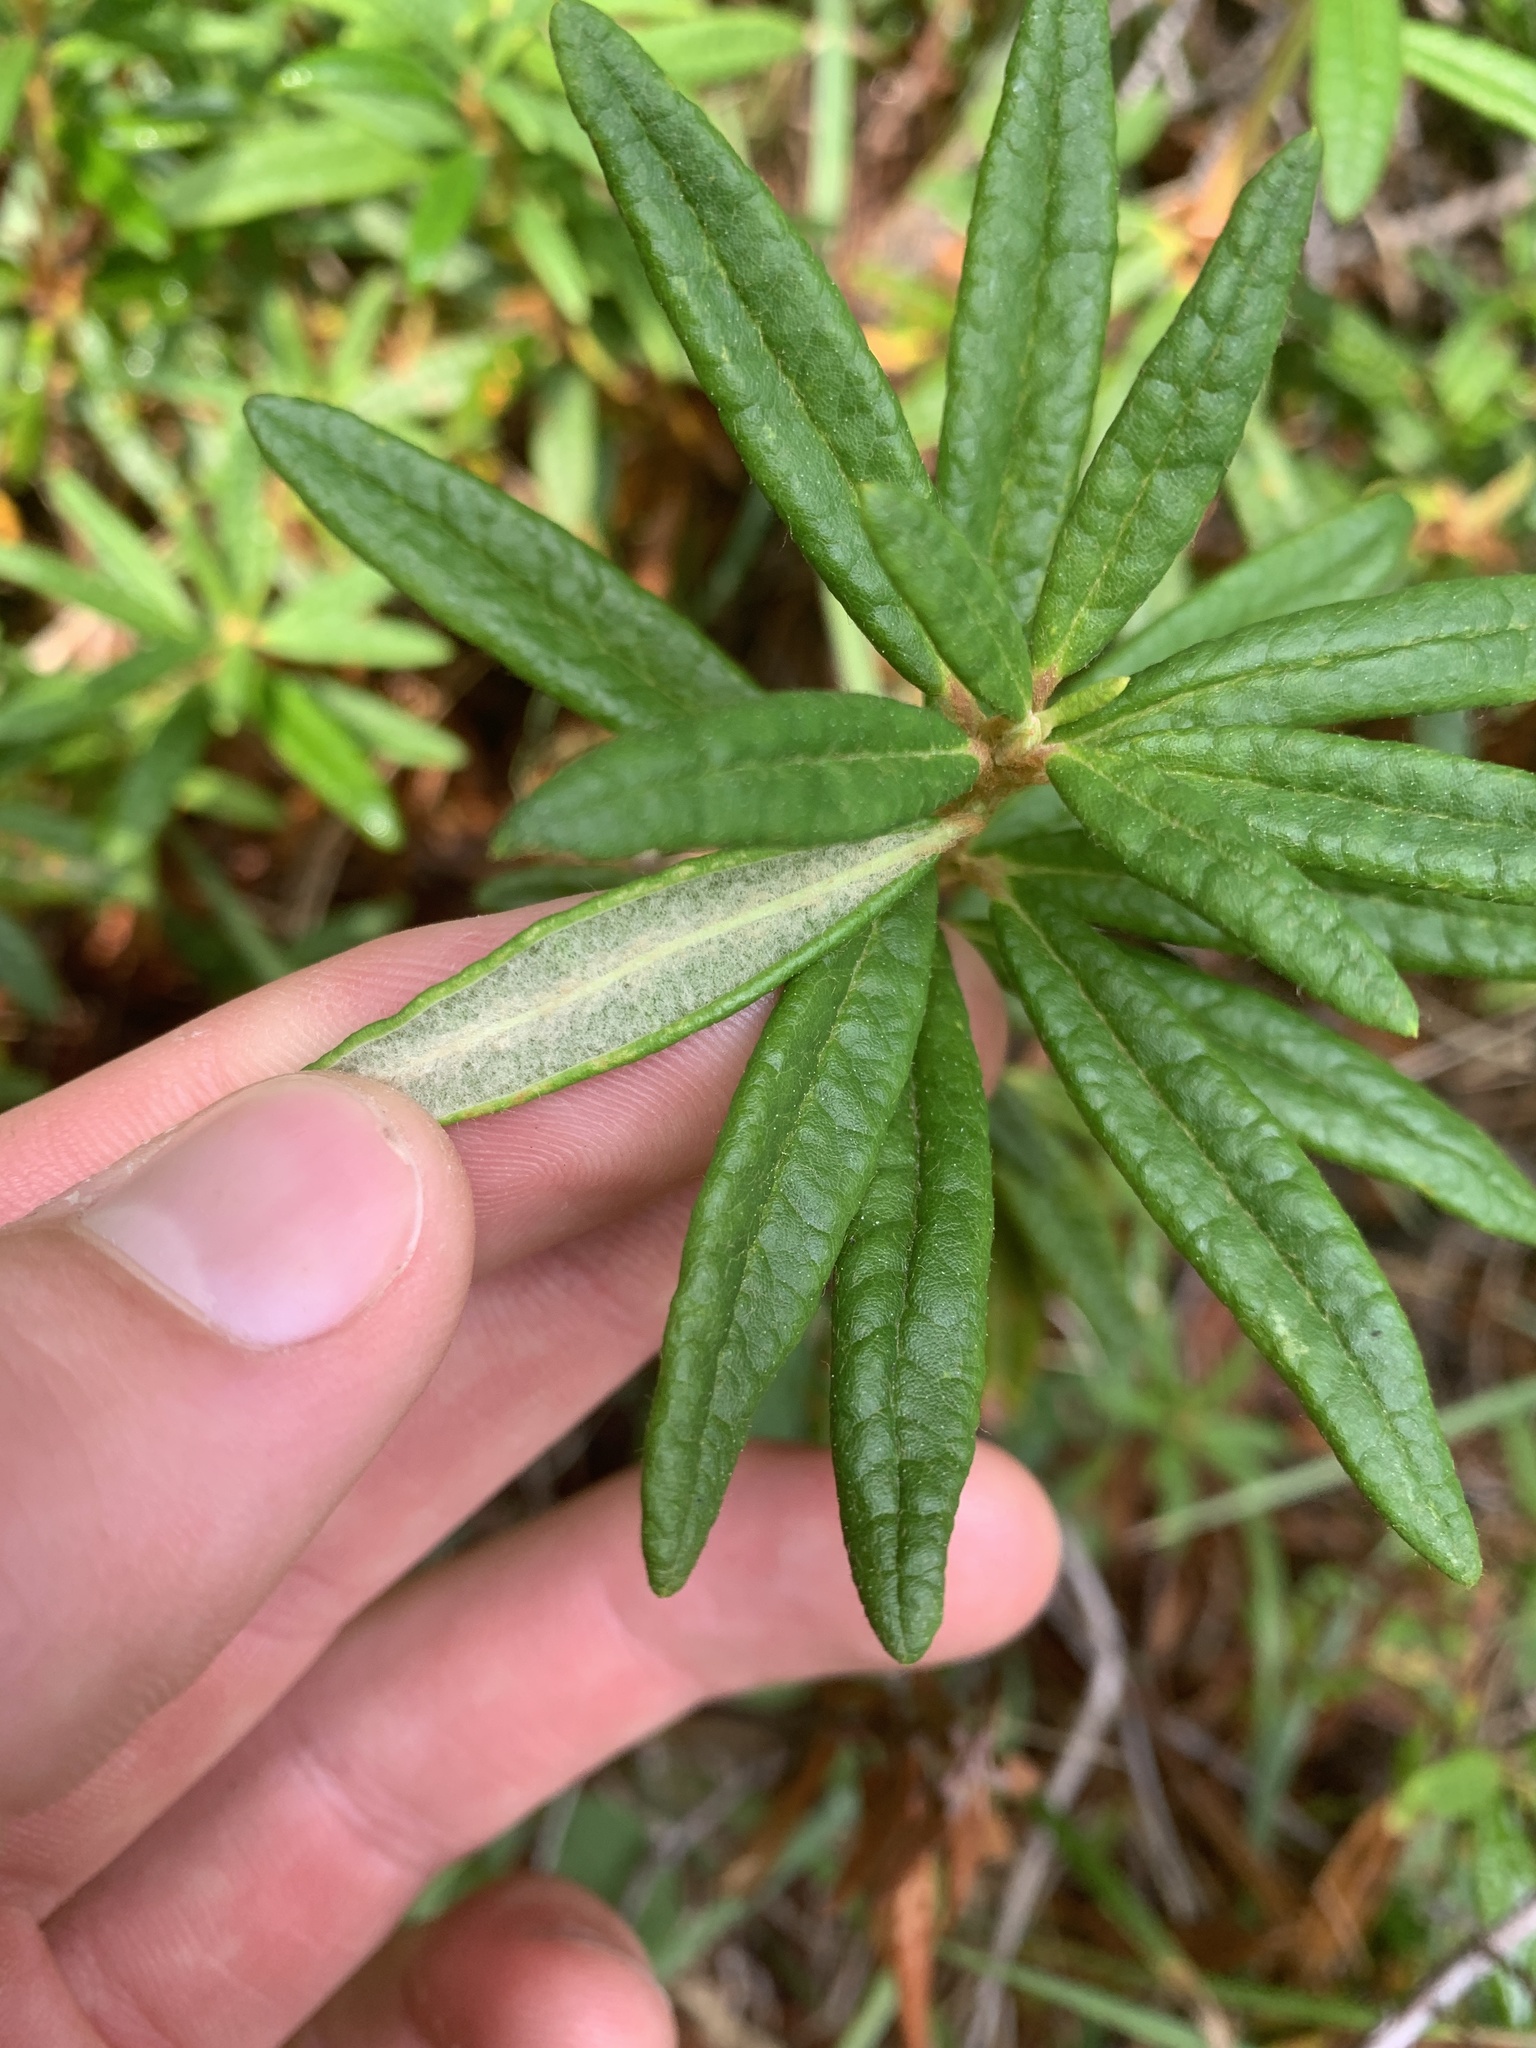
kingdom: Plantae
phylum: Tracheophyta
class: Magnoliopsida
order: Ericales
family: Ericaceae
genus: Rhododendron
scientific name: Rhododendron groenlandicum
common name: Bog labrador tea
